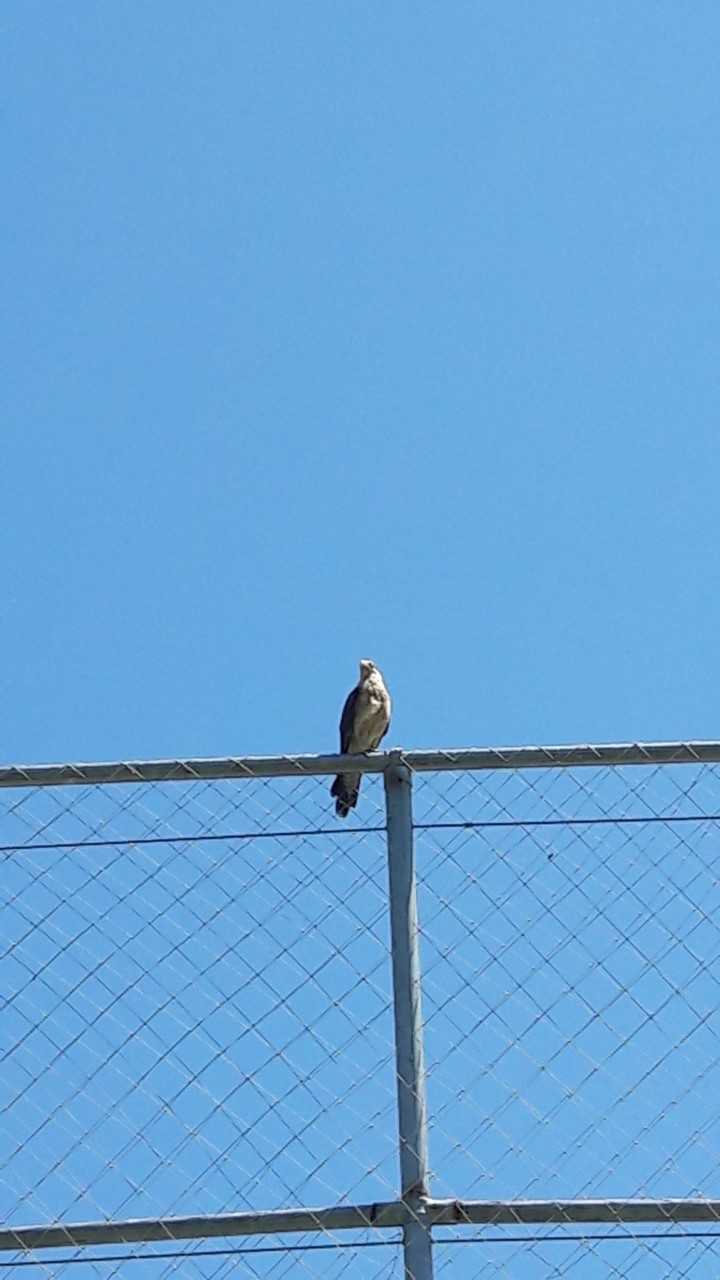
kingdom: Animalia
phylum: Chordata
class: Aves
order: Falconiformes
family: Falconidae
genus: Daptrius
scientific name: Daptrius
